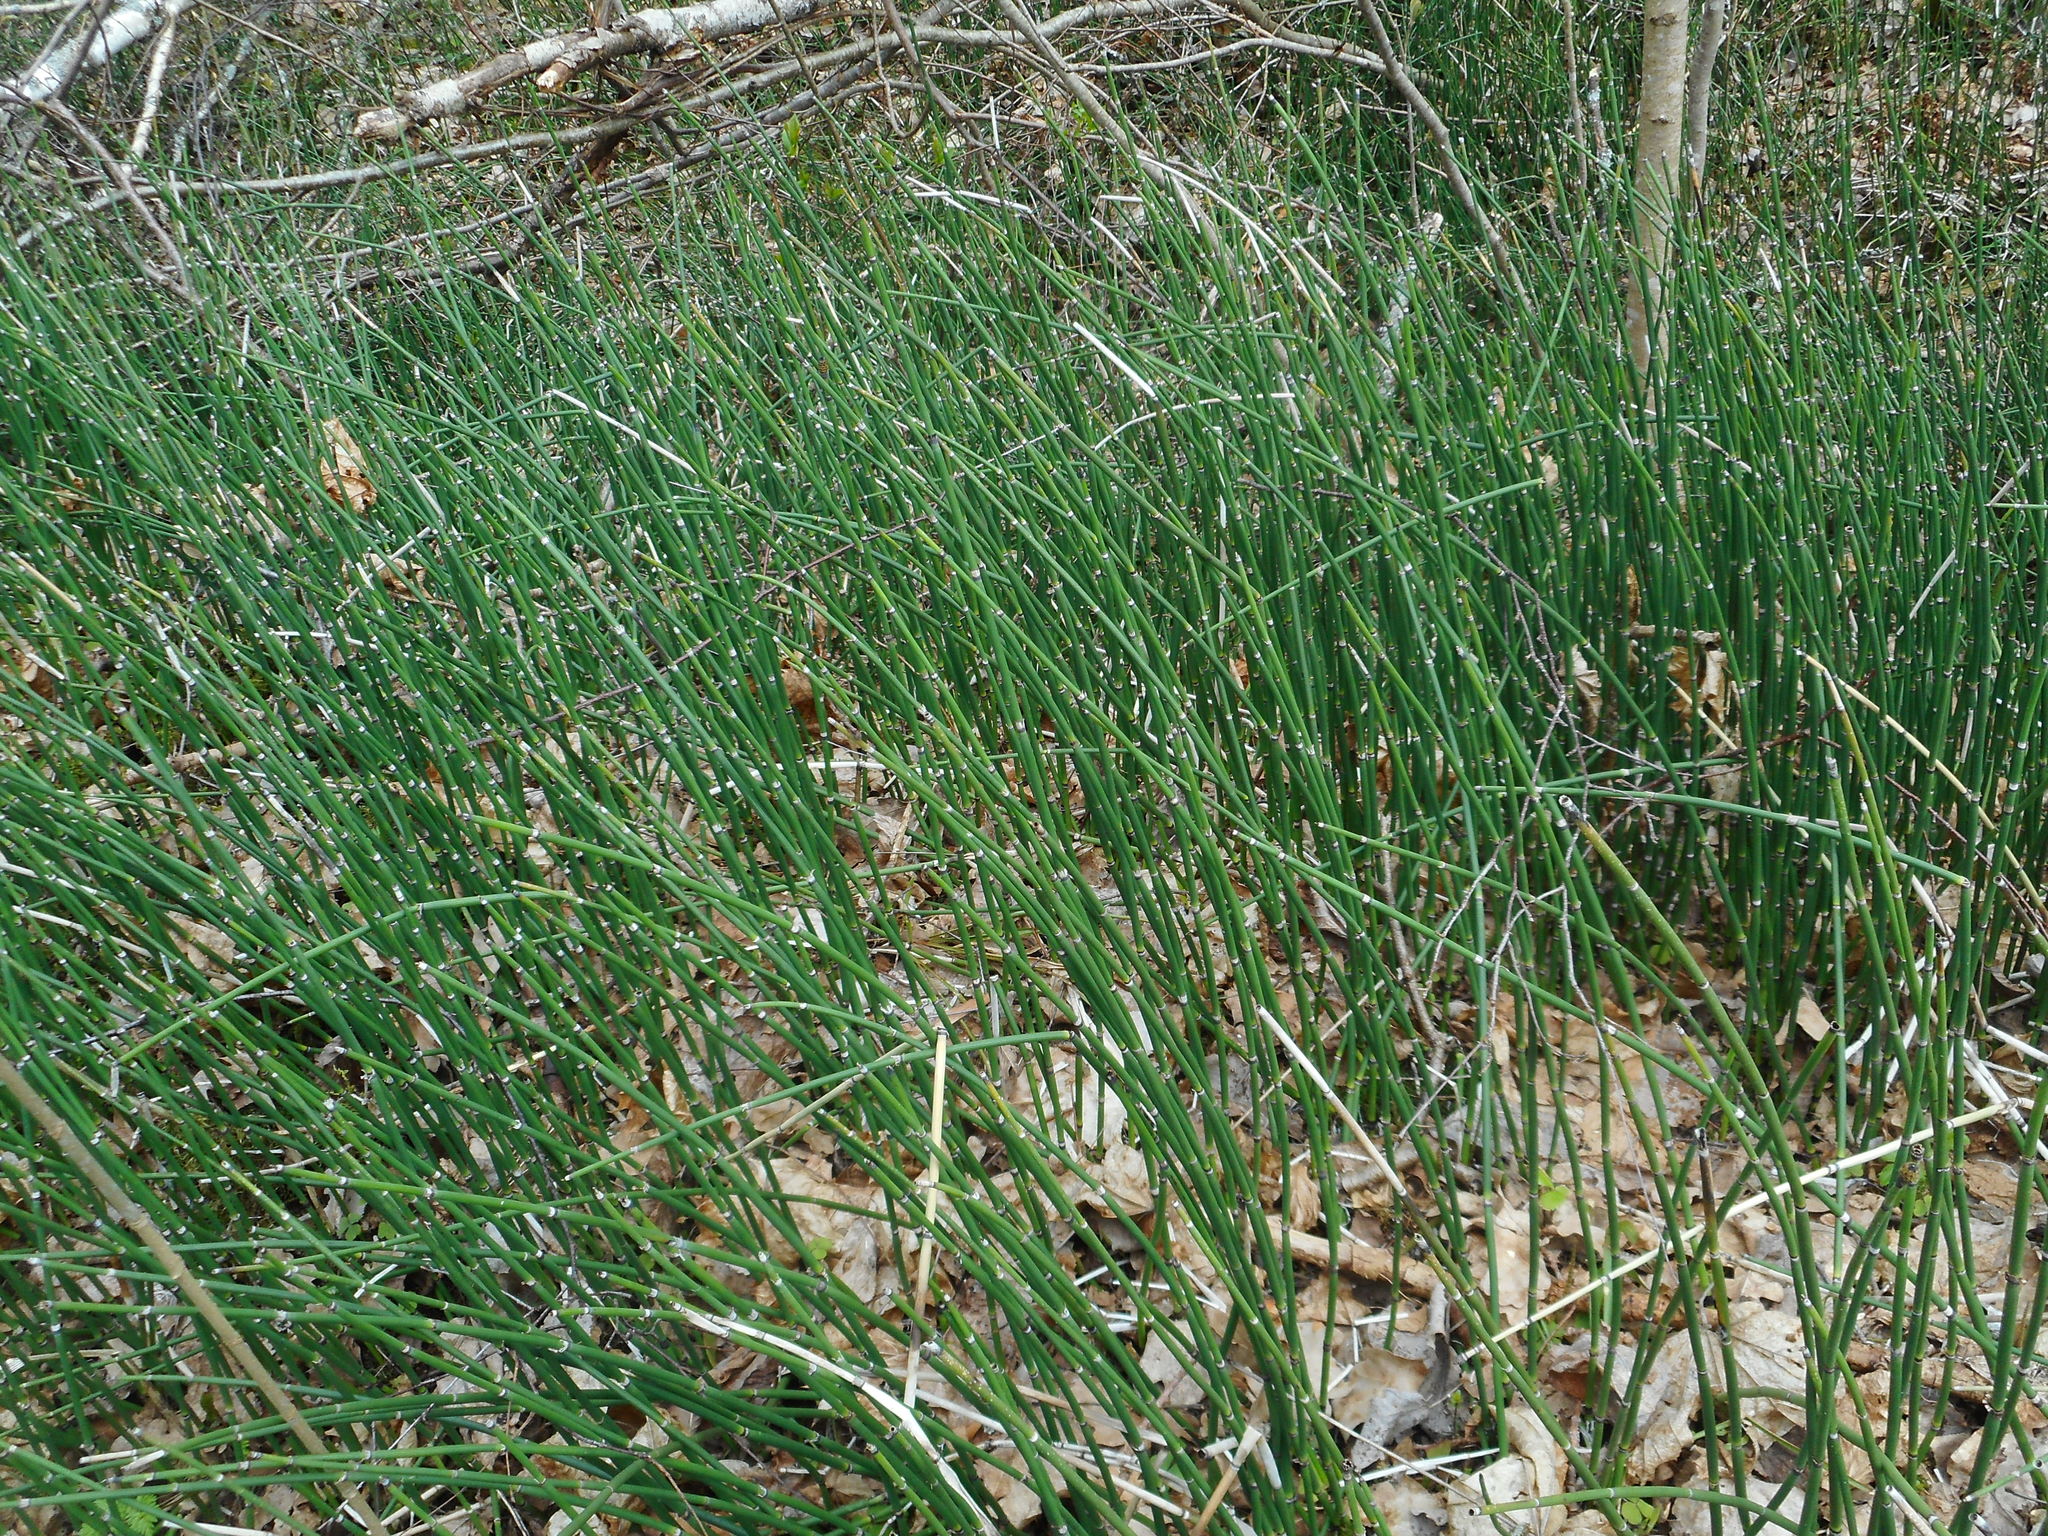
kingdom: Plantae
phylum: Tracheophyta
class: Polypodiopsida
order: Equisetales
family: Equisetaceae
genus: Equisetum
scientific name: Equisetum hyemale
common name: Rough horsetail
